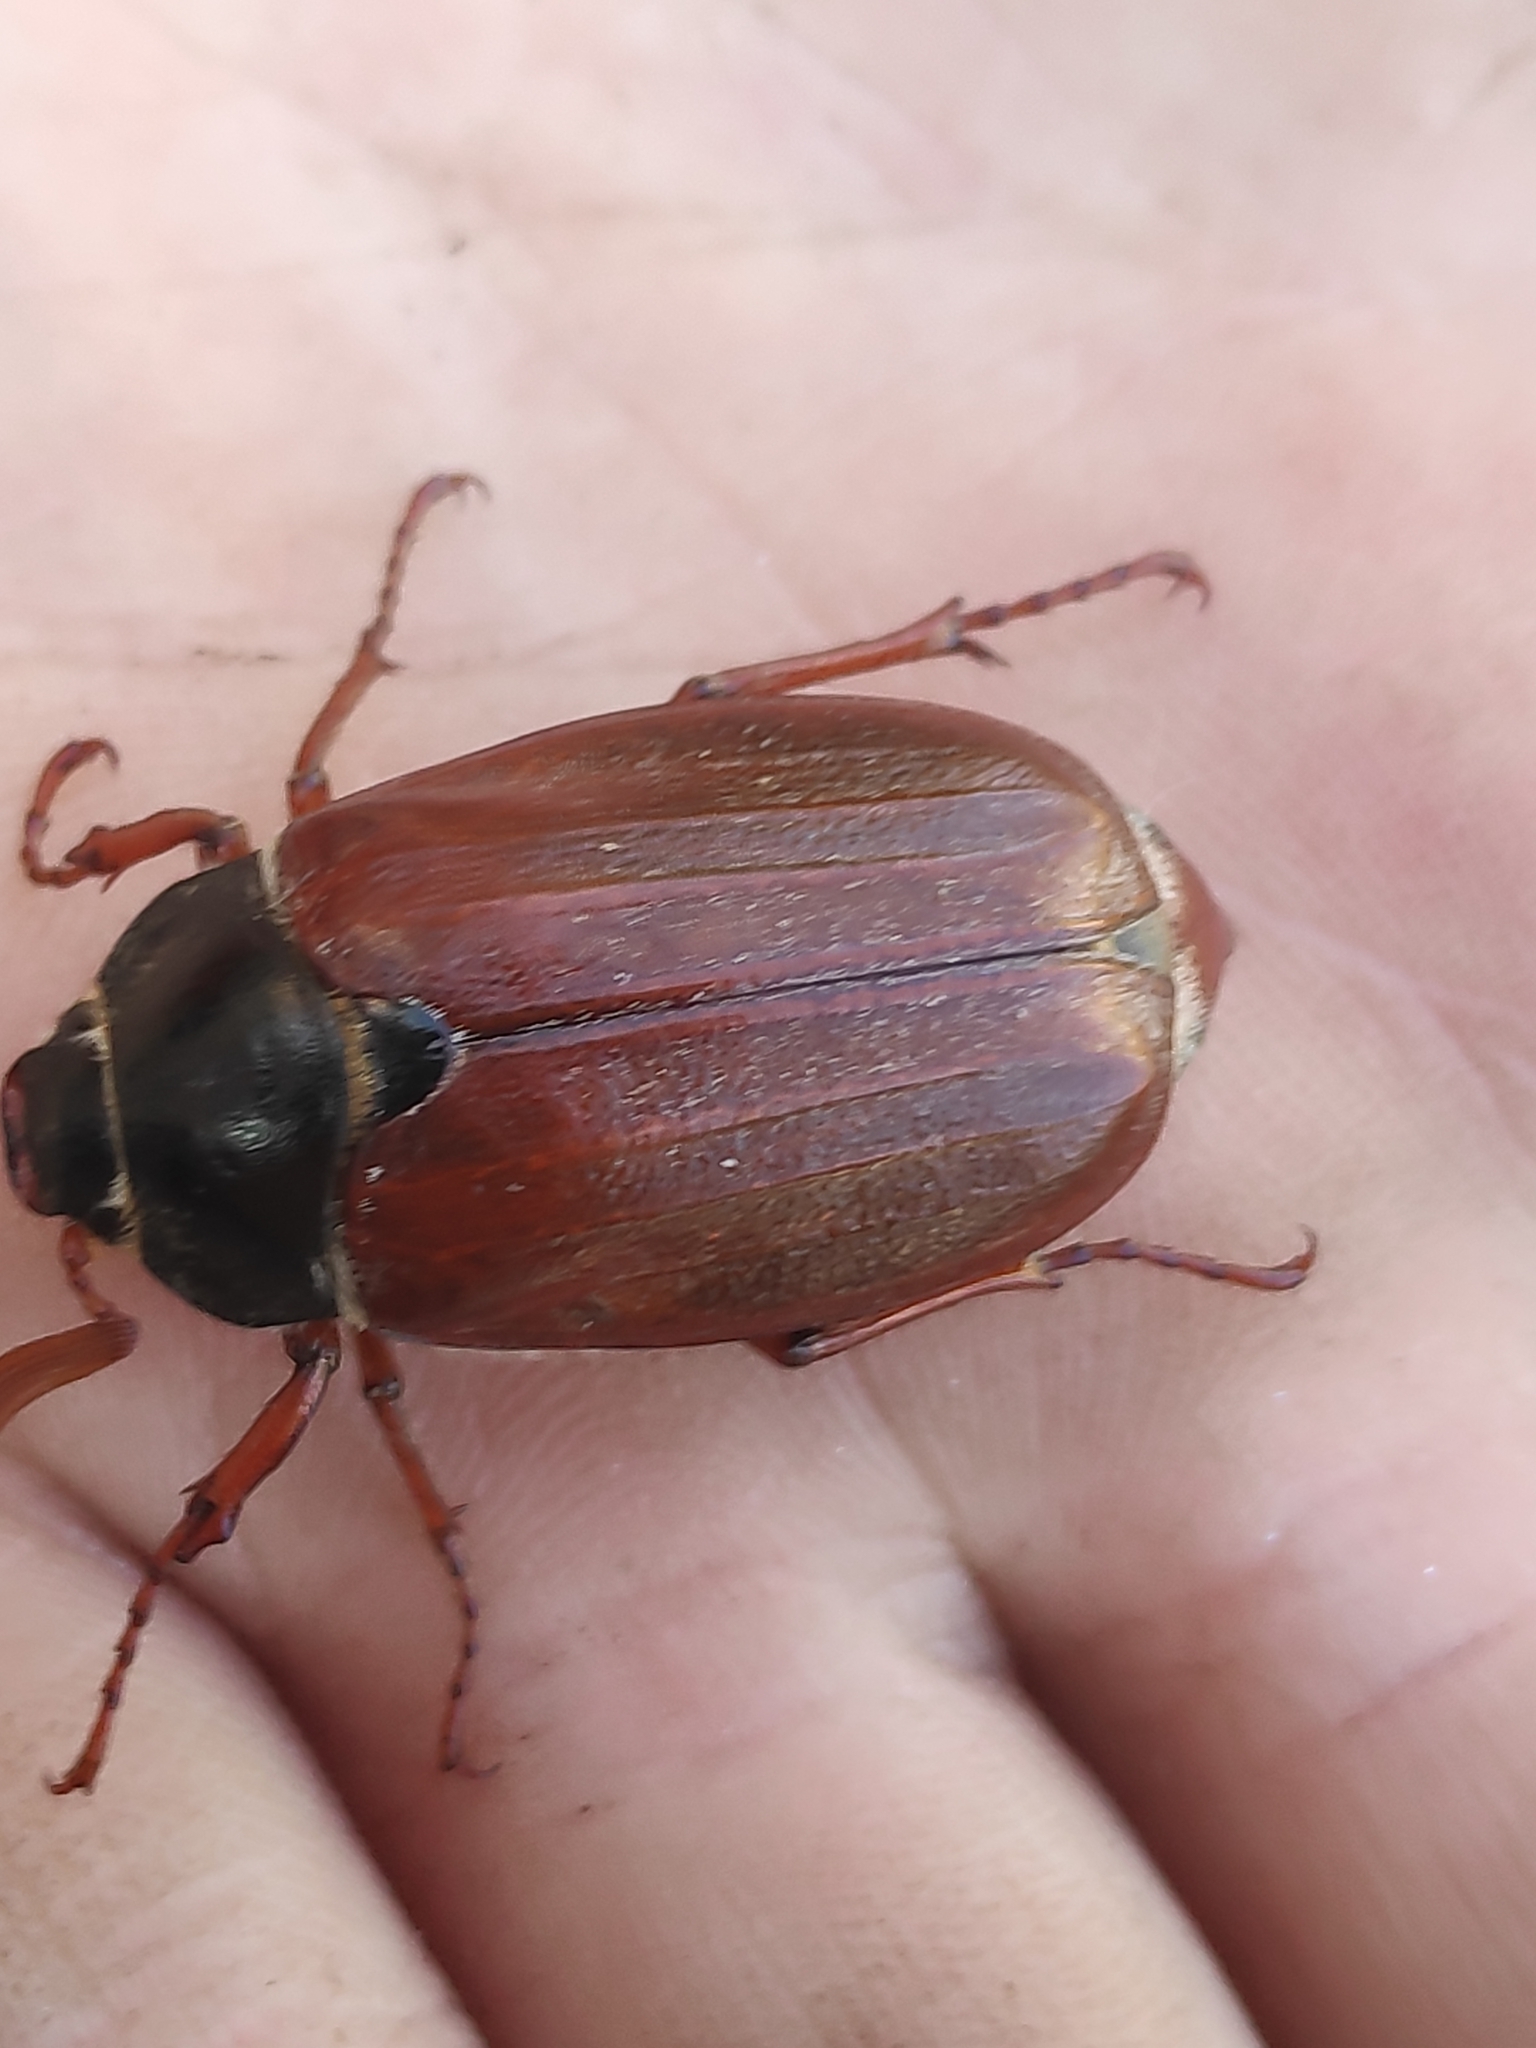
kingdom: Animalia
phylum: Arthropoda
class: Insecta
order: Coleoptera
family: Scarabaeidae
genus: Melolontha
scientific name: Melolontha melolontha
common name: Cockchafer maybeetle
